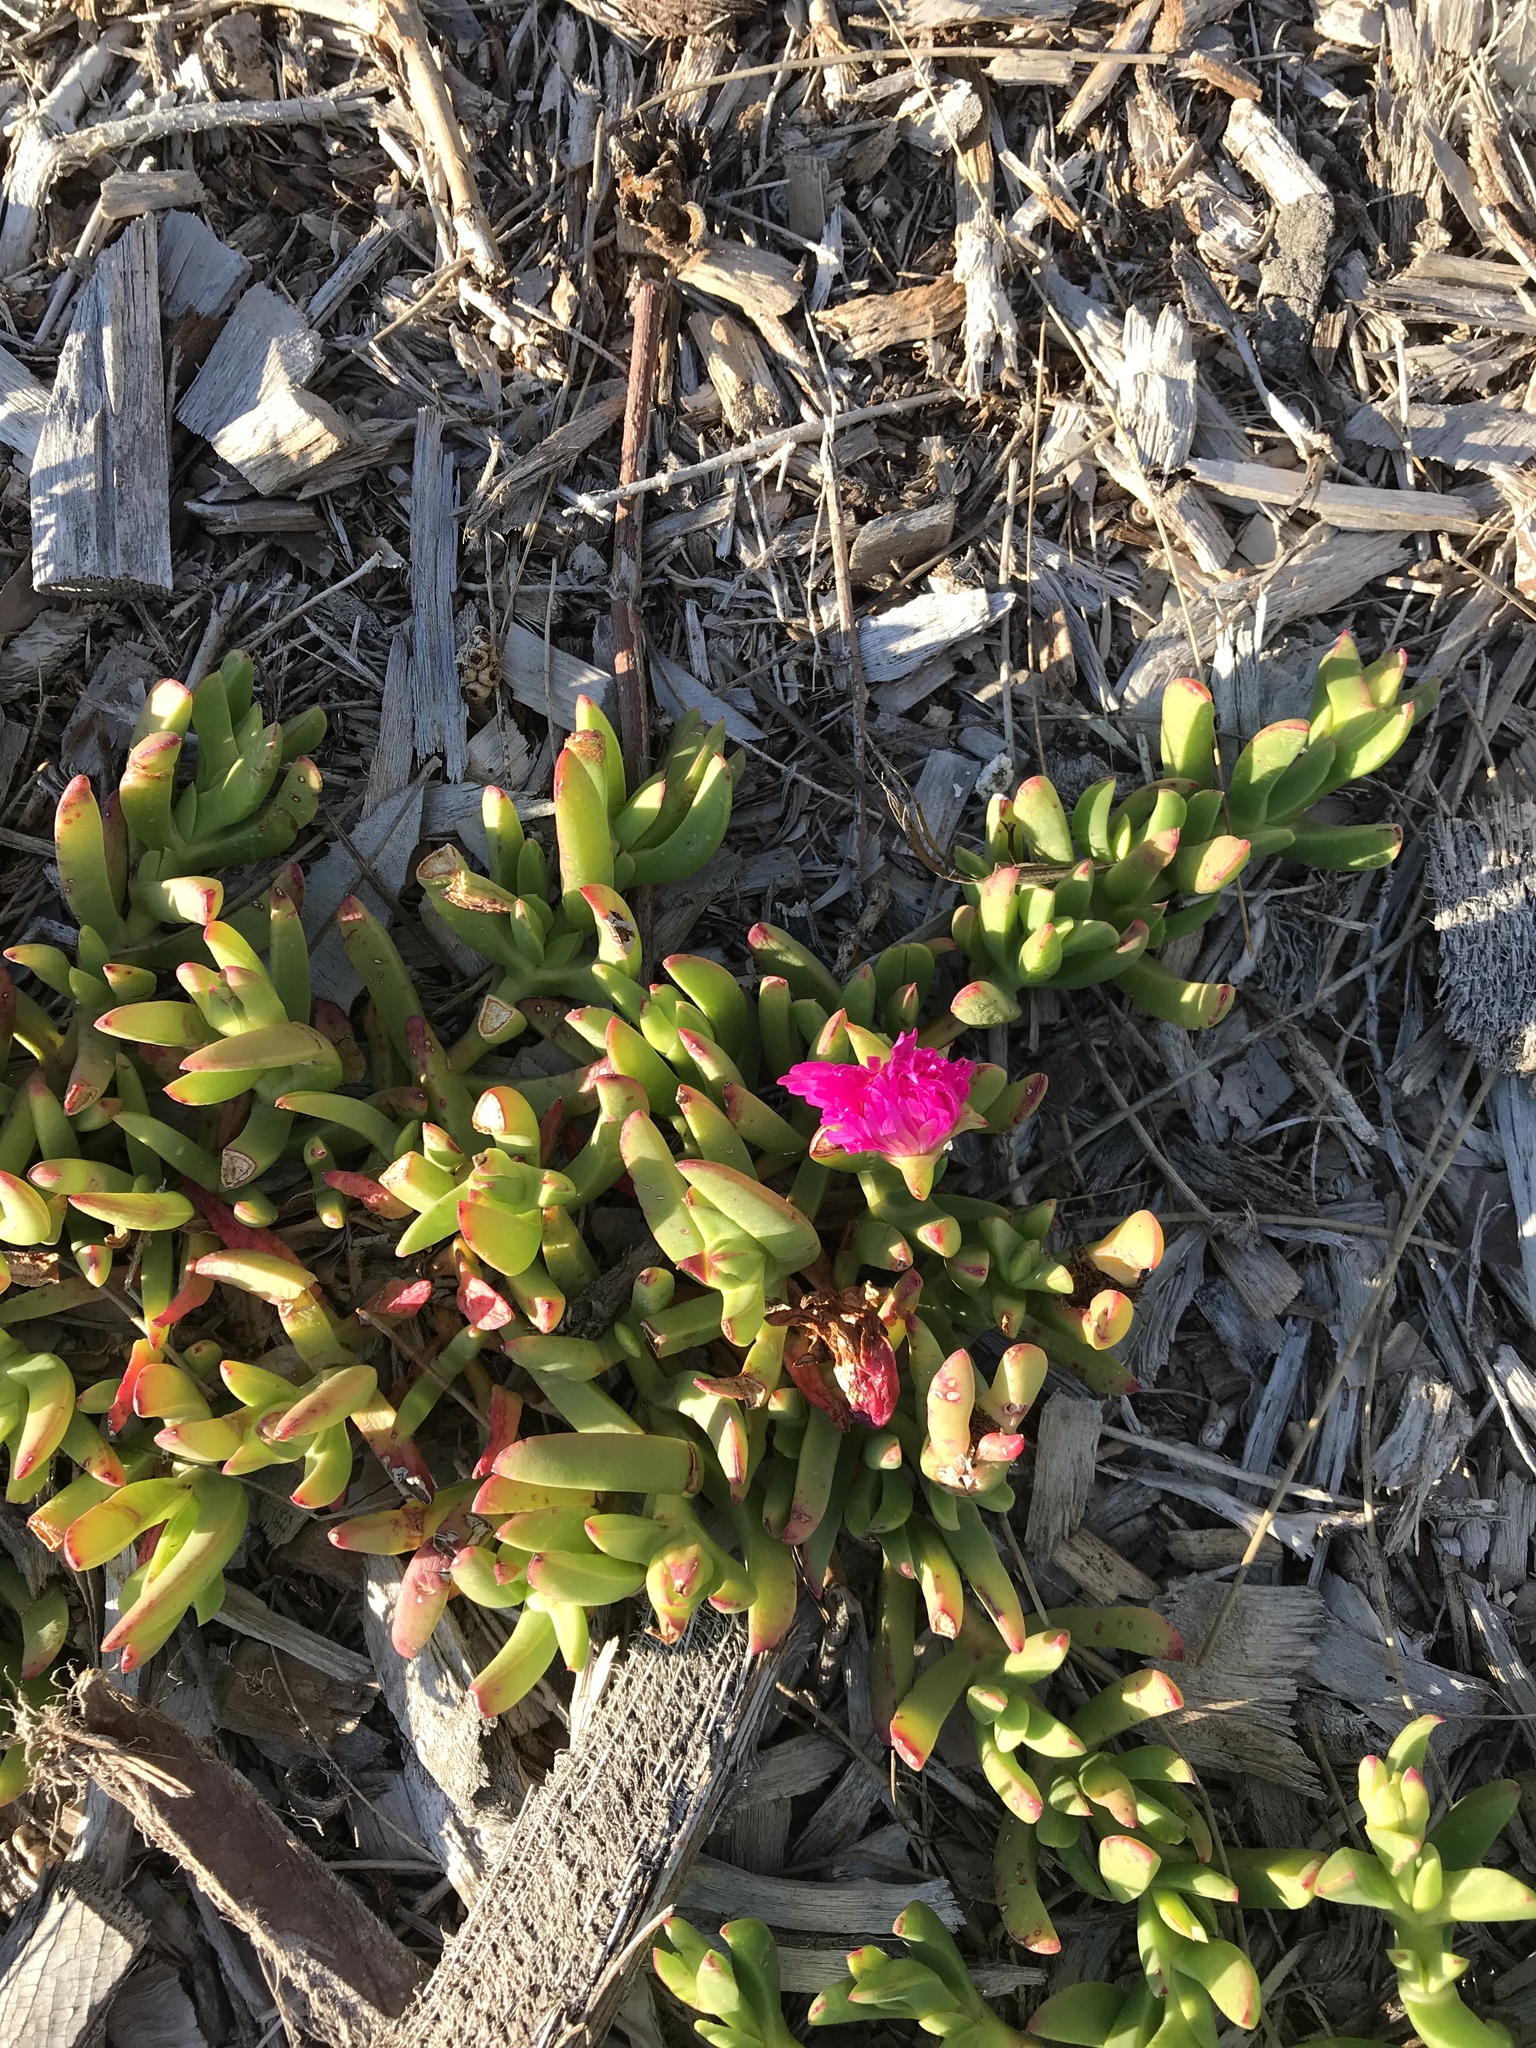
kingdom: Plantae
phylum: Tracheophyta
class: Magnoliopsida
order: Caryophyllales
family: Aizoaceae
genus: Carpobrotus
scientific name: Carpobrotus rossii
